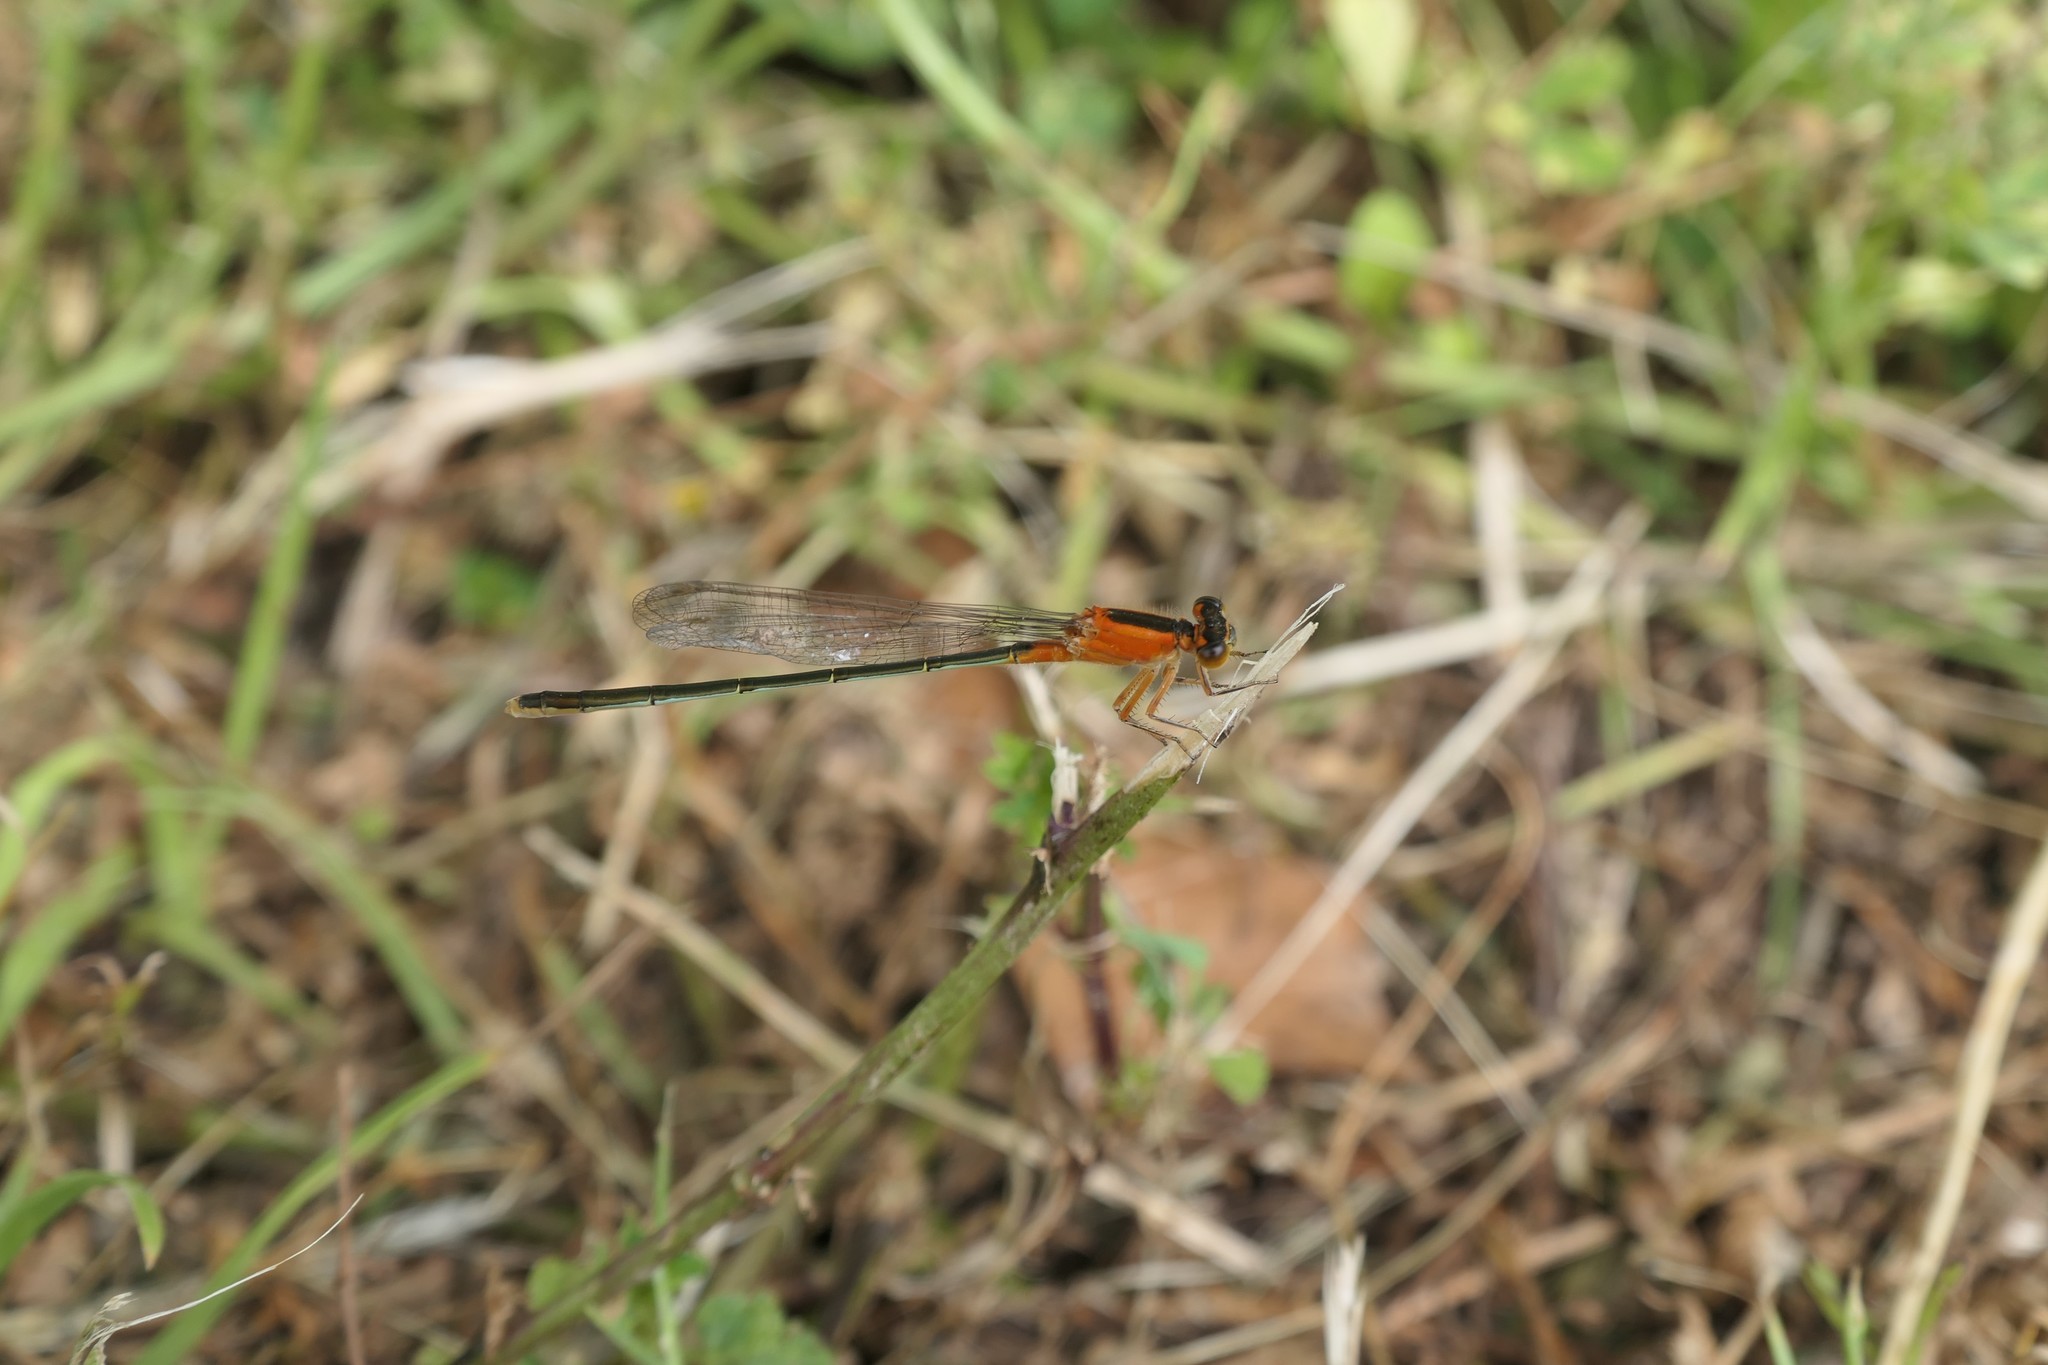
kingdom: Animalia
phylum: Arthropoda
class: Insecta
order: Odonata
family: Coenagrionidae
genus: Ischnura
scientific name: Ischnura ramburii
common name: Rambur's forktail
